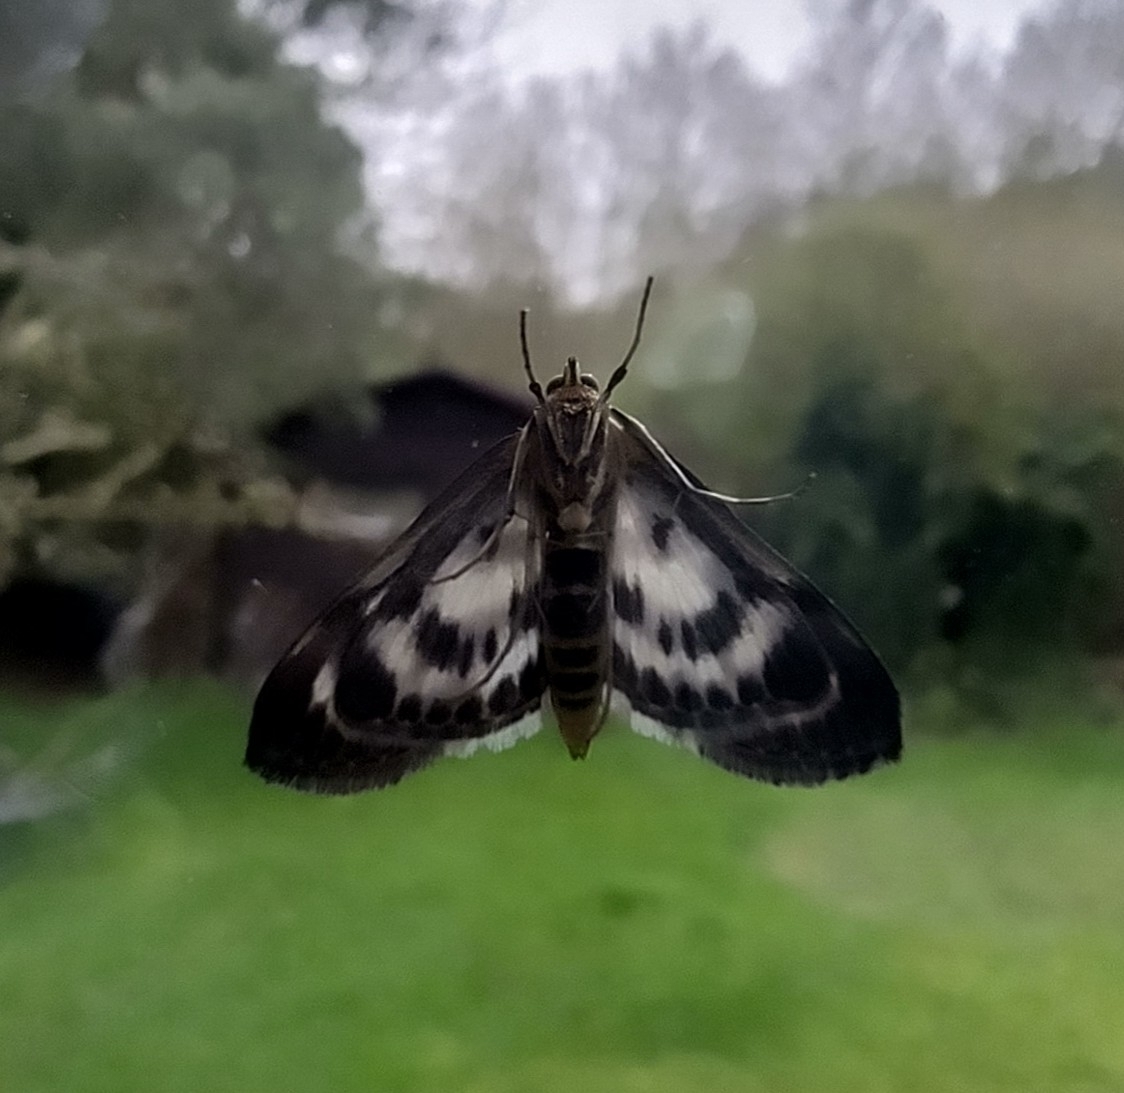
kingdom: Animalia
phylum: Arthropoda
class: Insecta
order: Lepidoptera
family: Crambidae
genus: Anania
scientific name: Anania hortulata
